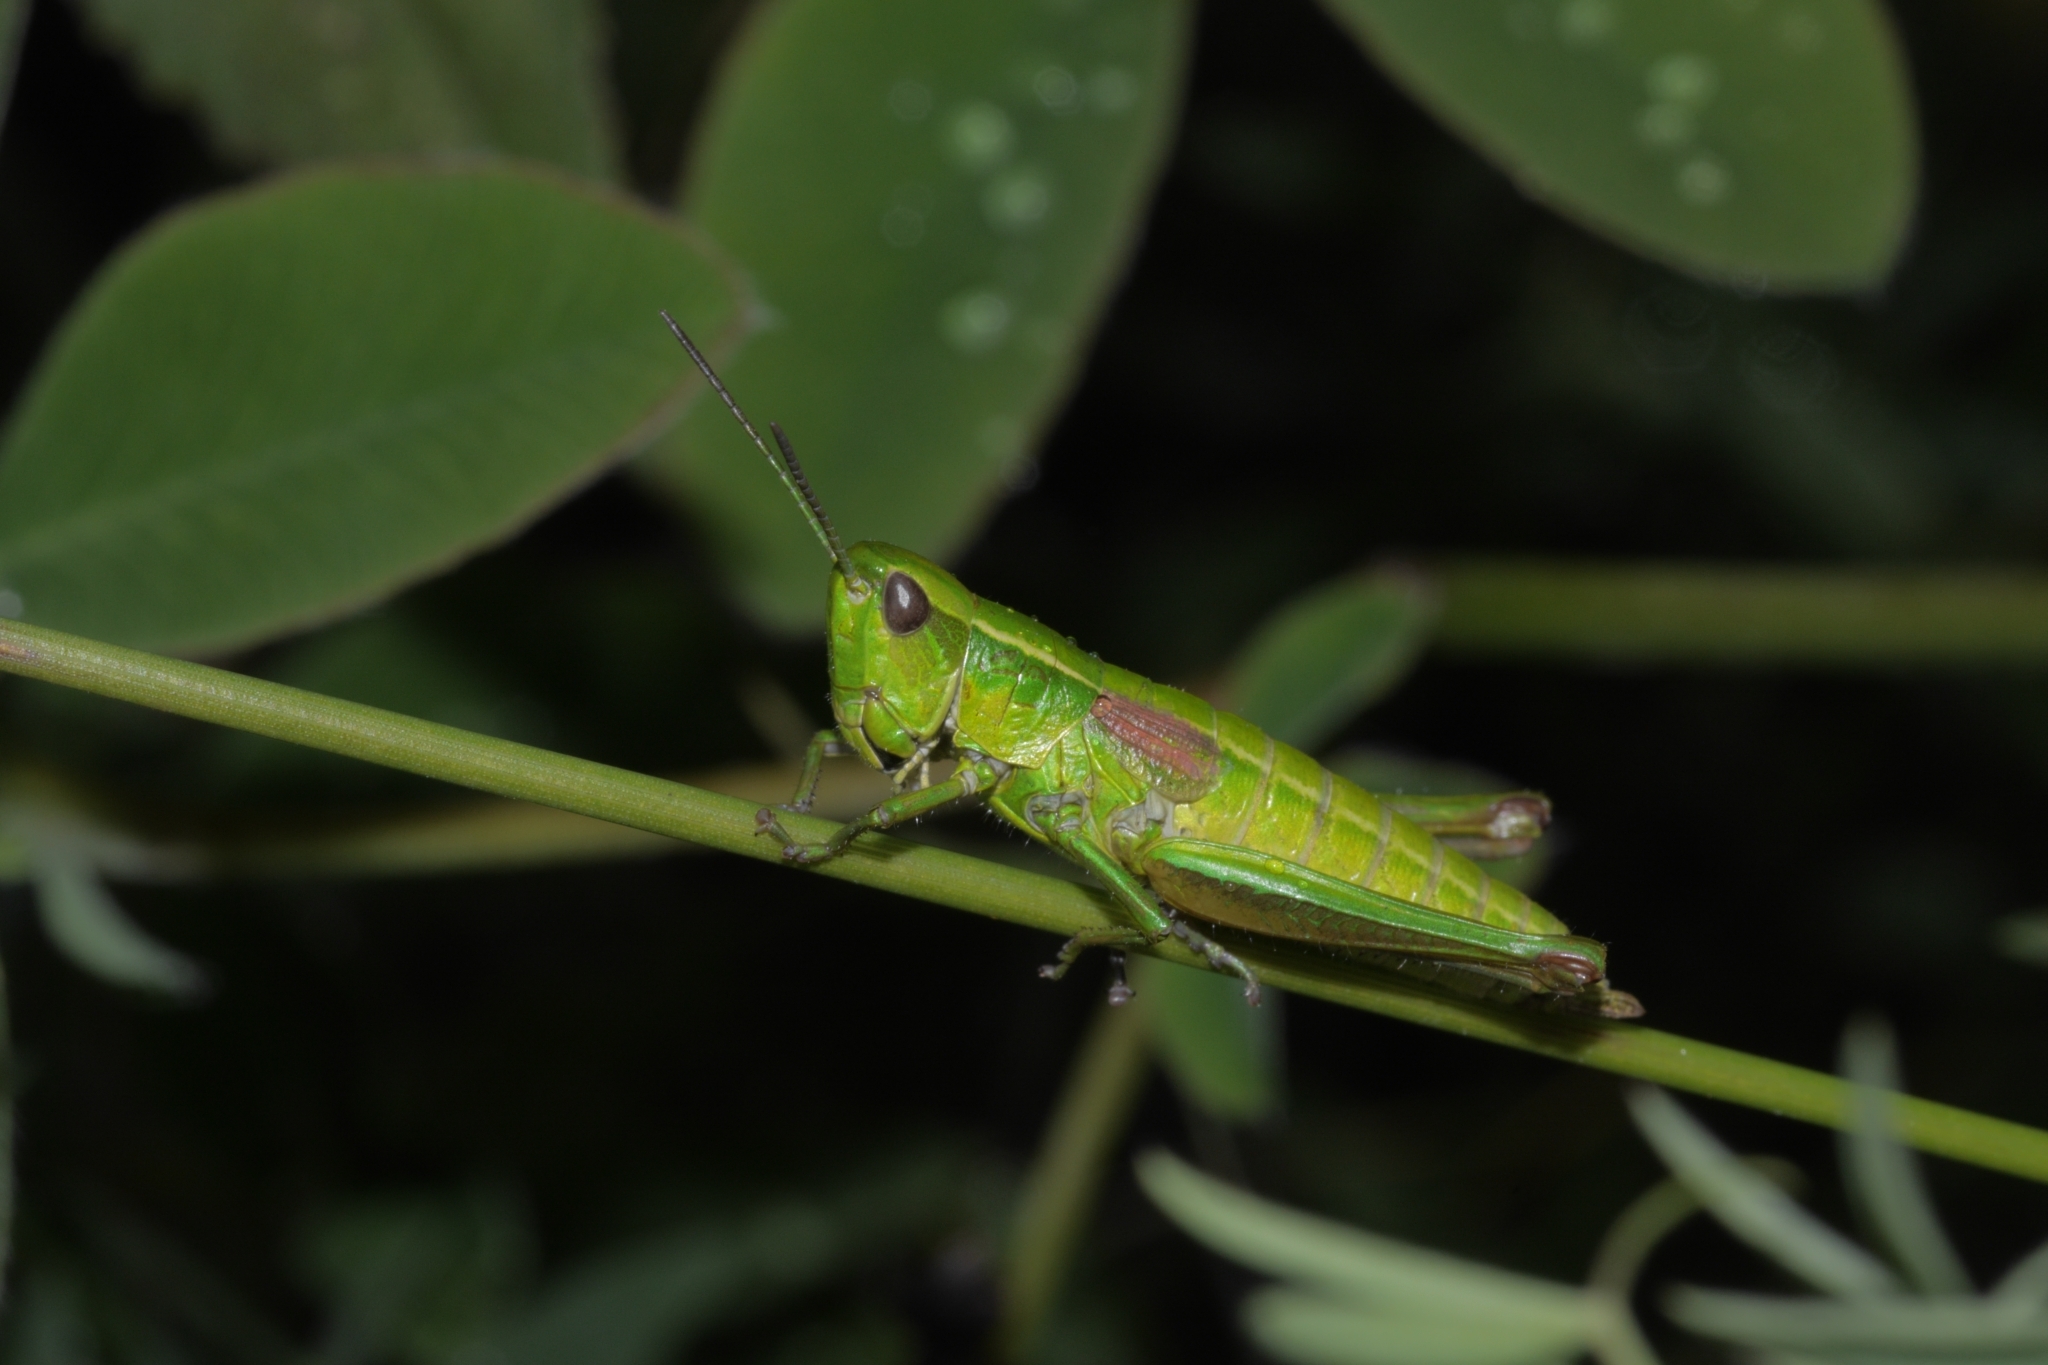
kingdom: Animalia
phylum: Arthropoda
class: Insecta
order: Orthoptera
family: Acrididae
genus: Euthystira
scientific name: Euthystira brachyptera
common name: Small gold grasshopper
